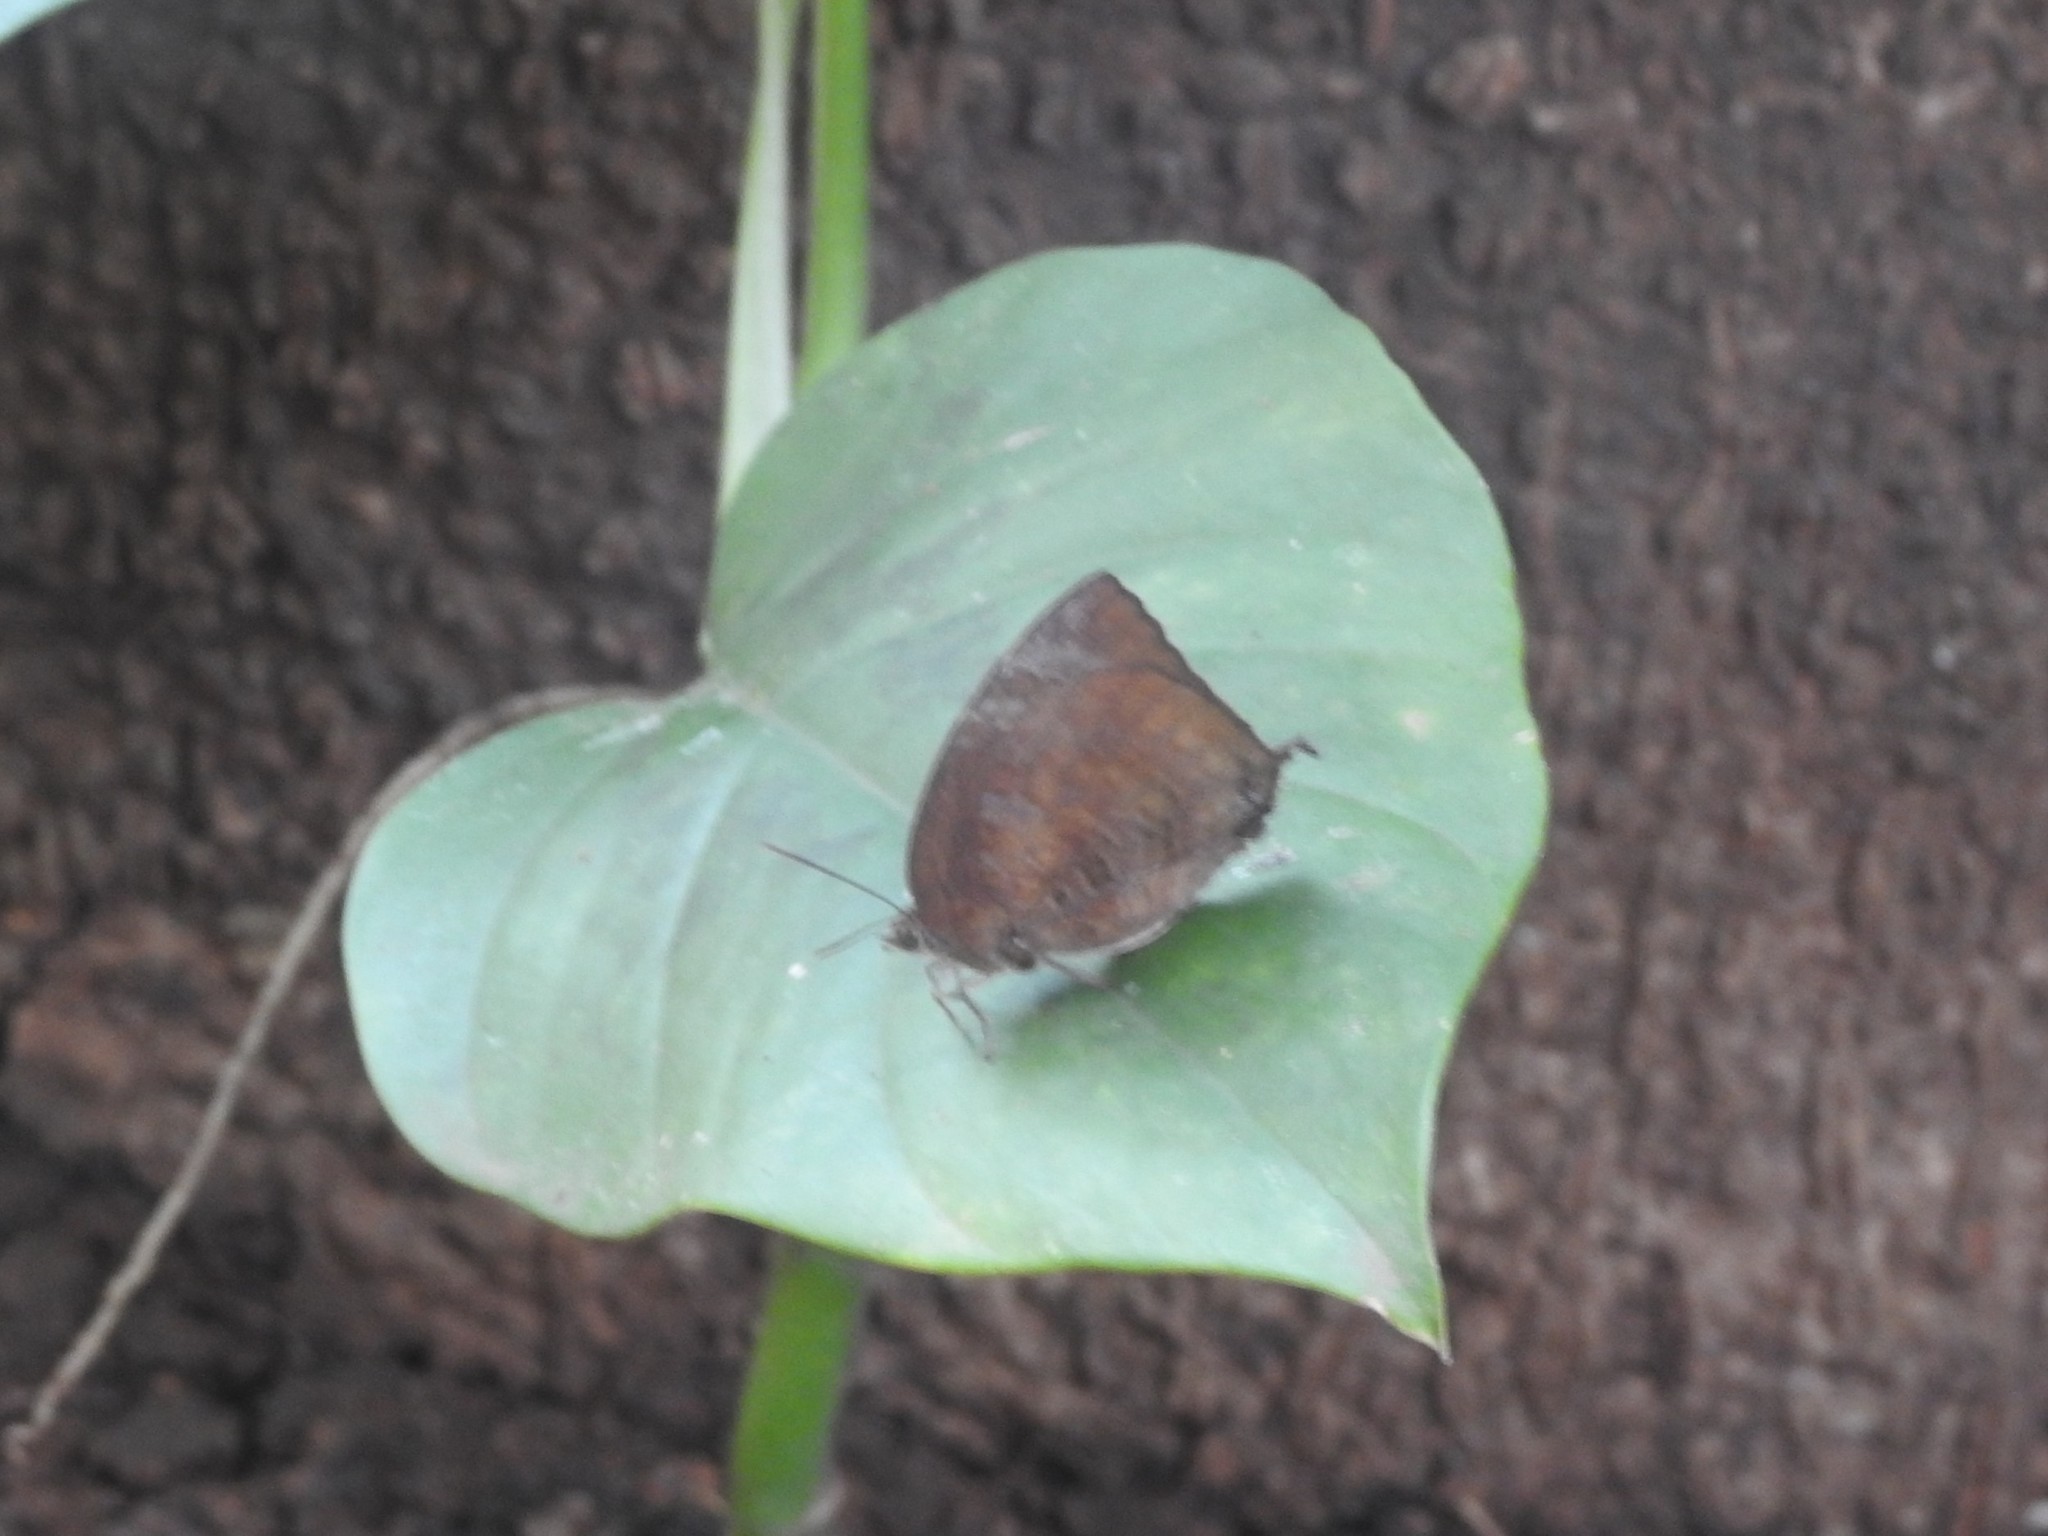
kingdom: Animalia
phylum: Arthropoda
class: Insecta
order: Lepidoptera
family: Lycaenidae
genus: Arhopala
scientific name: Arhopala centaurus
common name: Dull oak-blue
